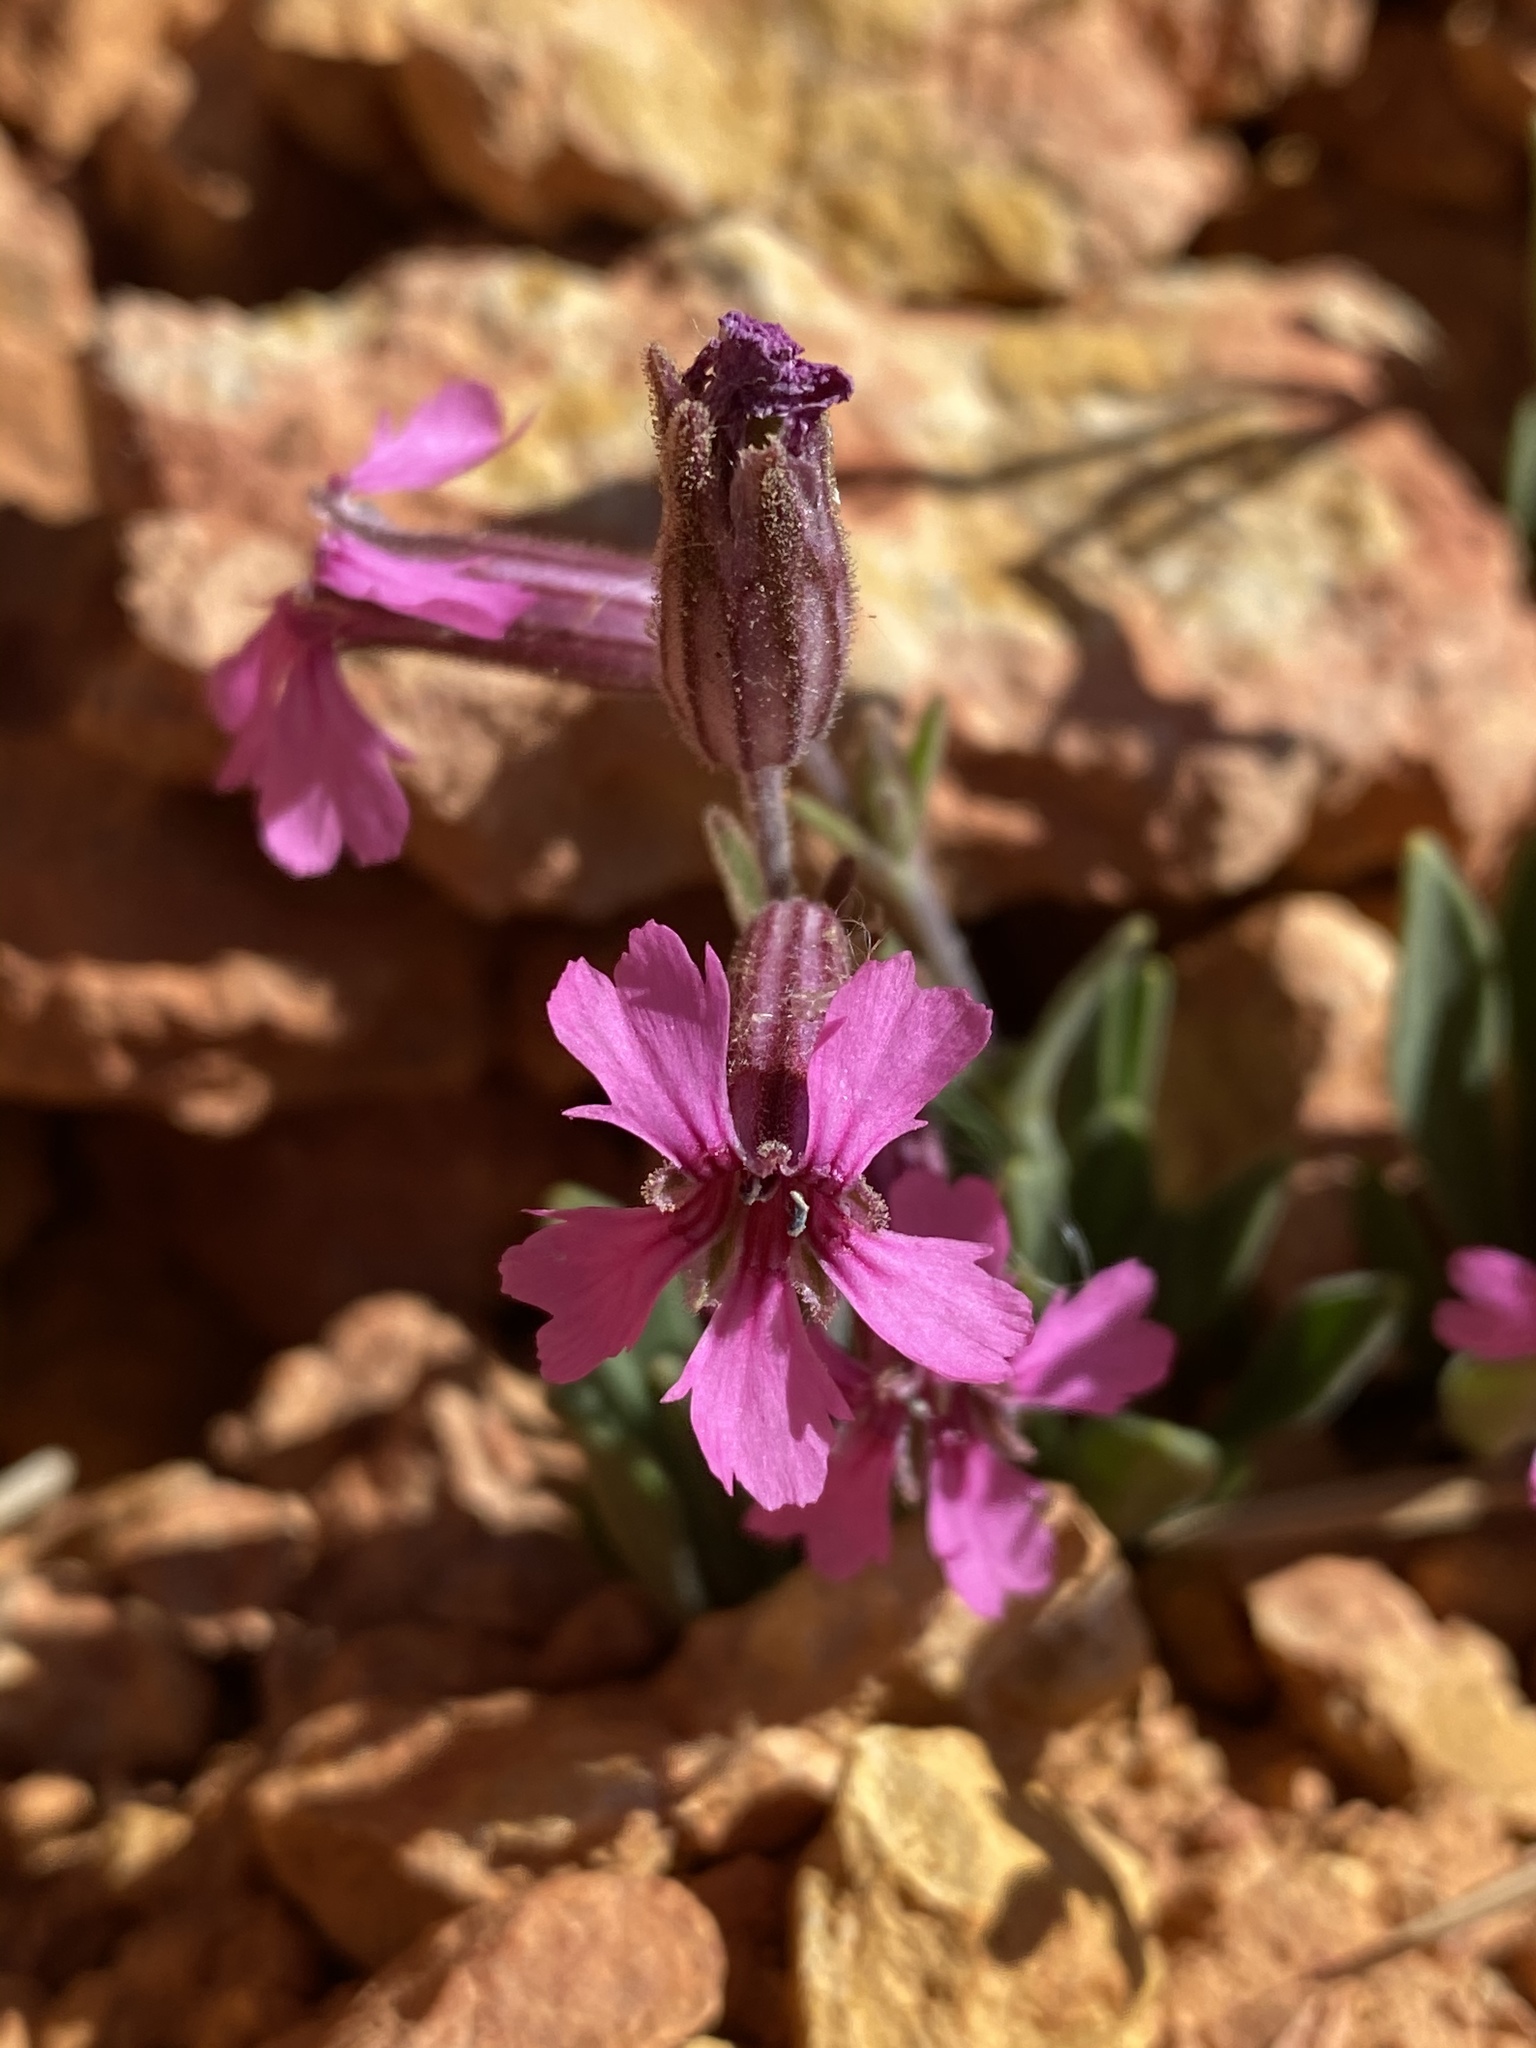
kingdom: Plantae
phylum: Tracheophyta
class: Magnoliopsida
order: Caryophyllales
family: Caryophyllaceae
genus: Silene
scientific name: Silene petersonii
